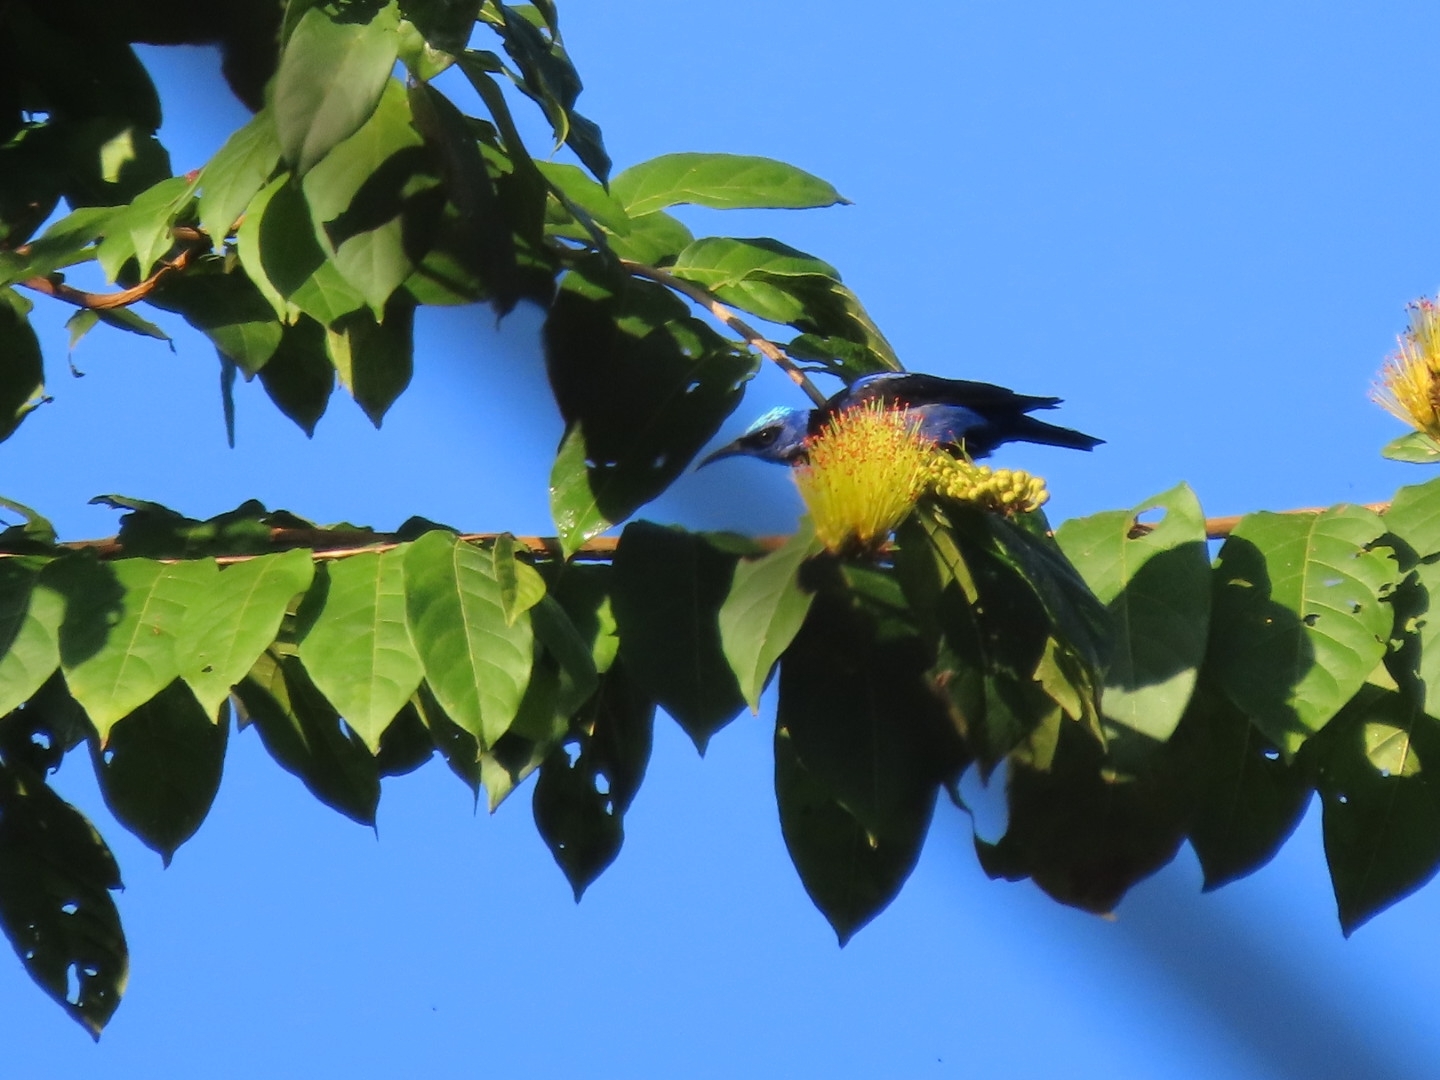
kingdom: Animalia
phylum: Chordata
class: Aves
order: Passeriformes
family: Thraupidae
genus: Cyanerpes
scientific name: Cyanerpes cyaneus
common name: Red-legged honeycreeper
